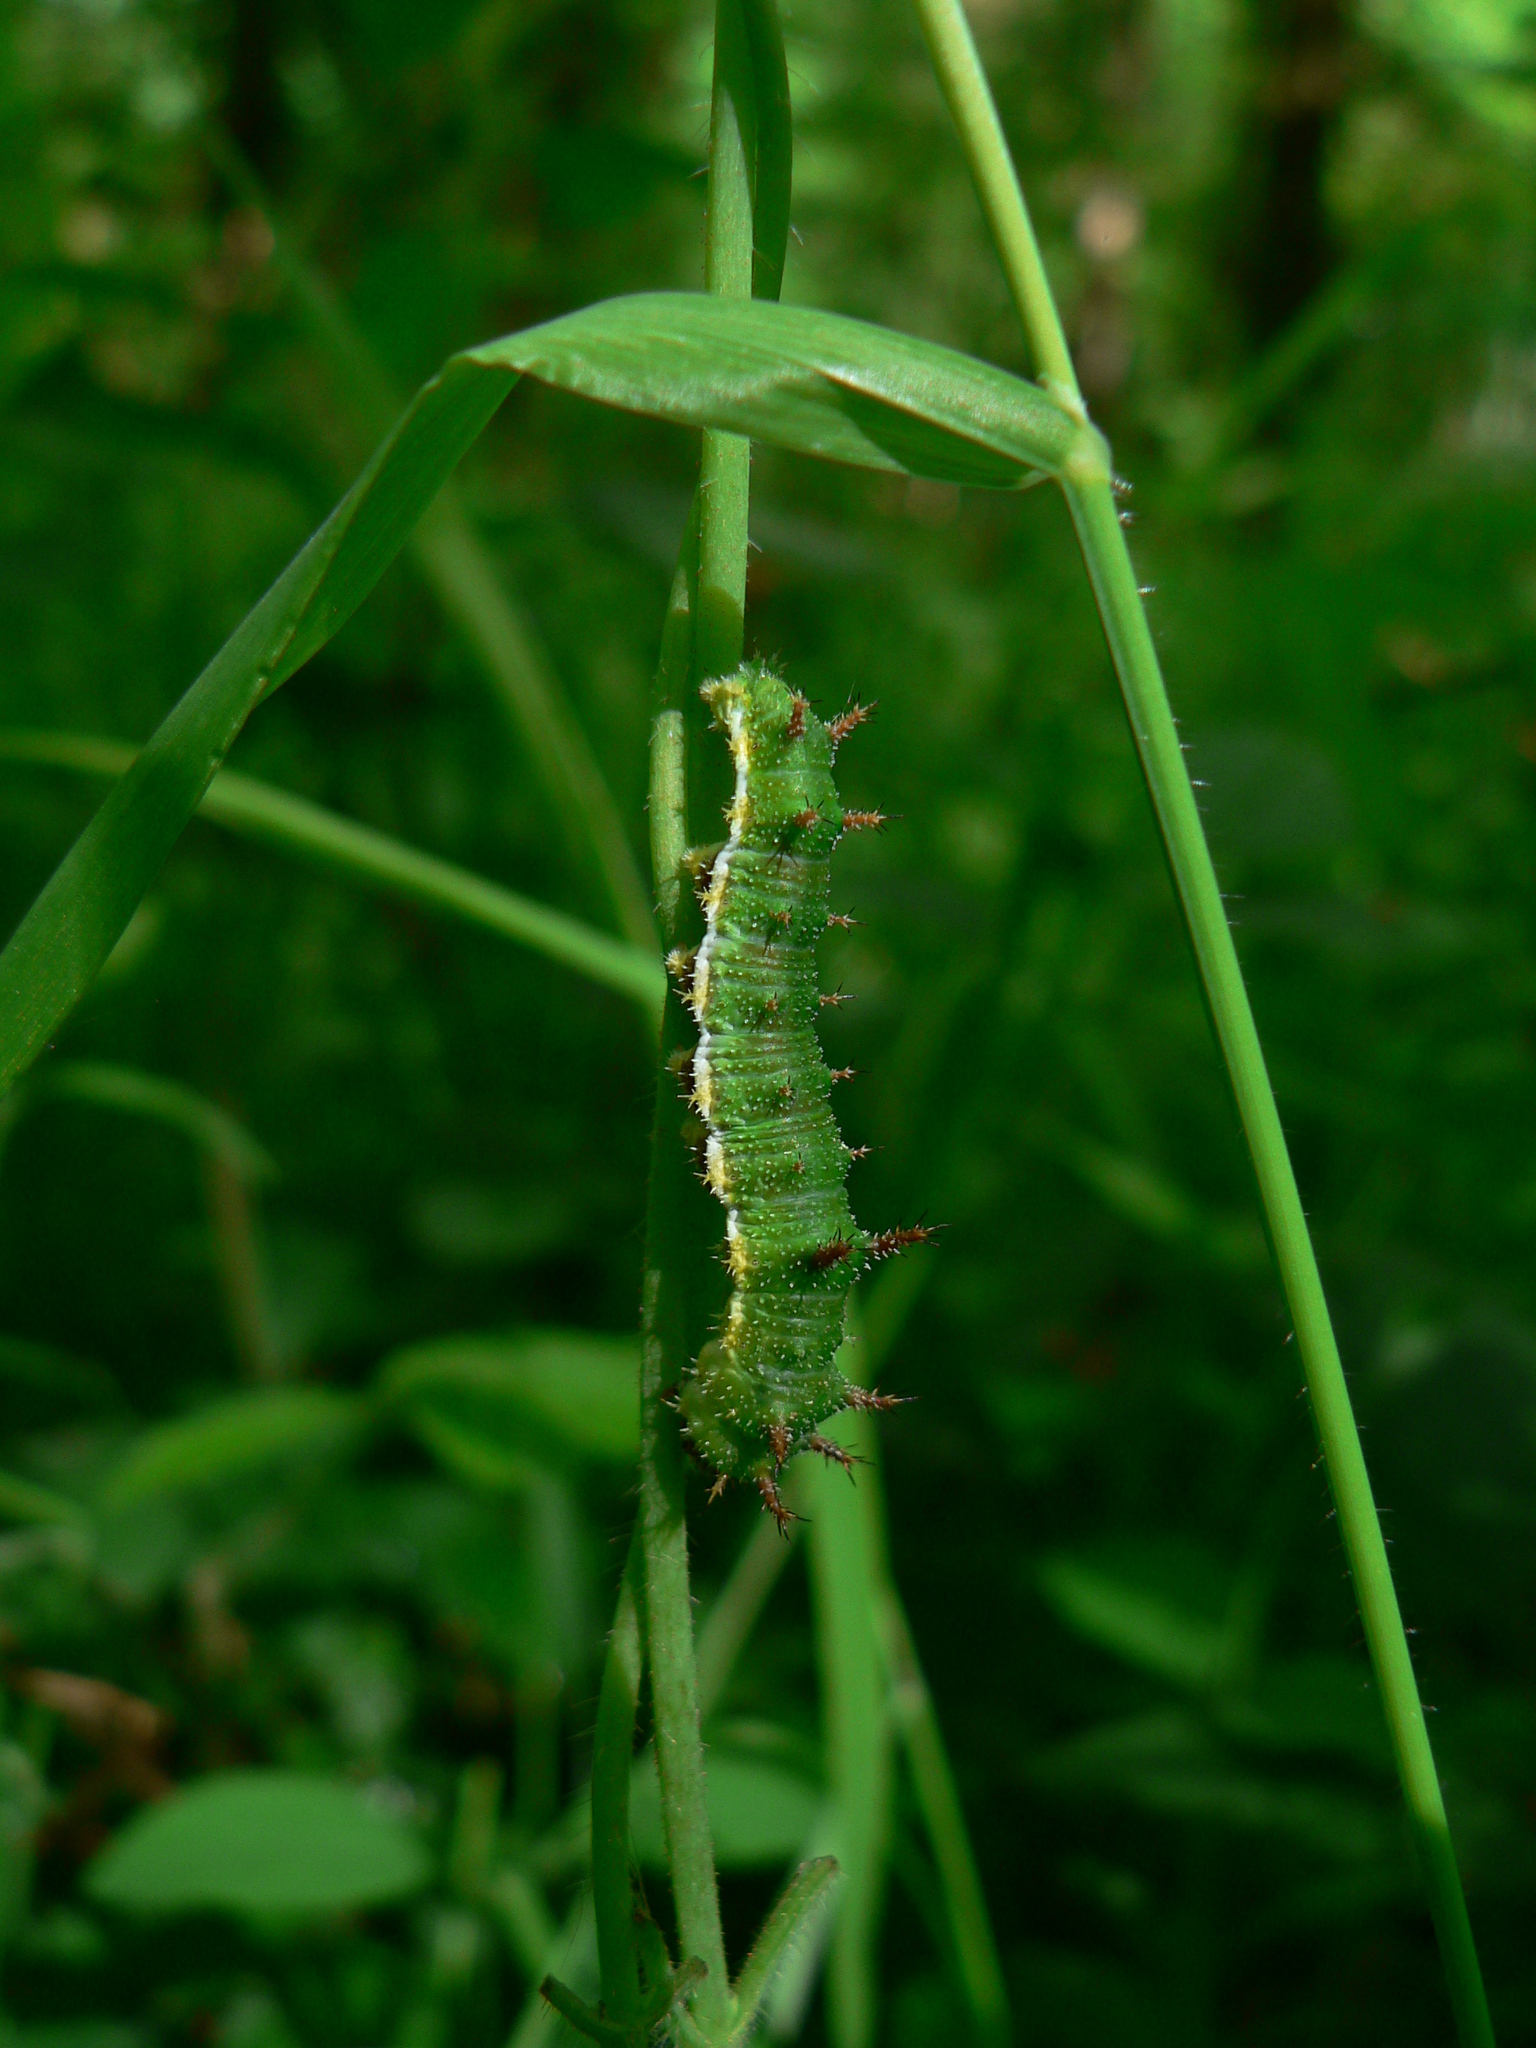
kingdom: Animalia
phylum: Arthropoda
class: Insecta
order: Lepidoptera
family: Nymphalidae
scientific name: Nymphalidae
